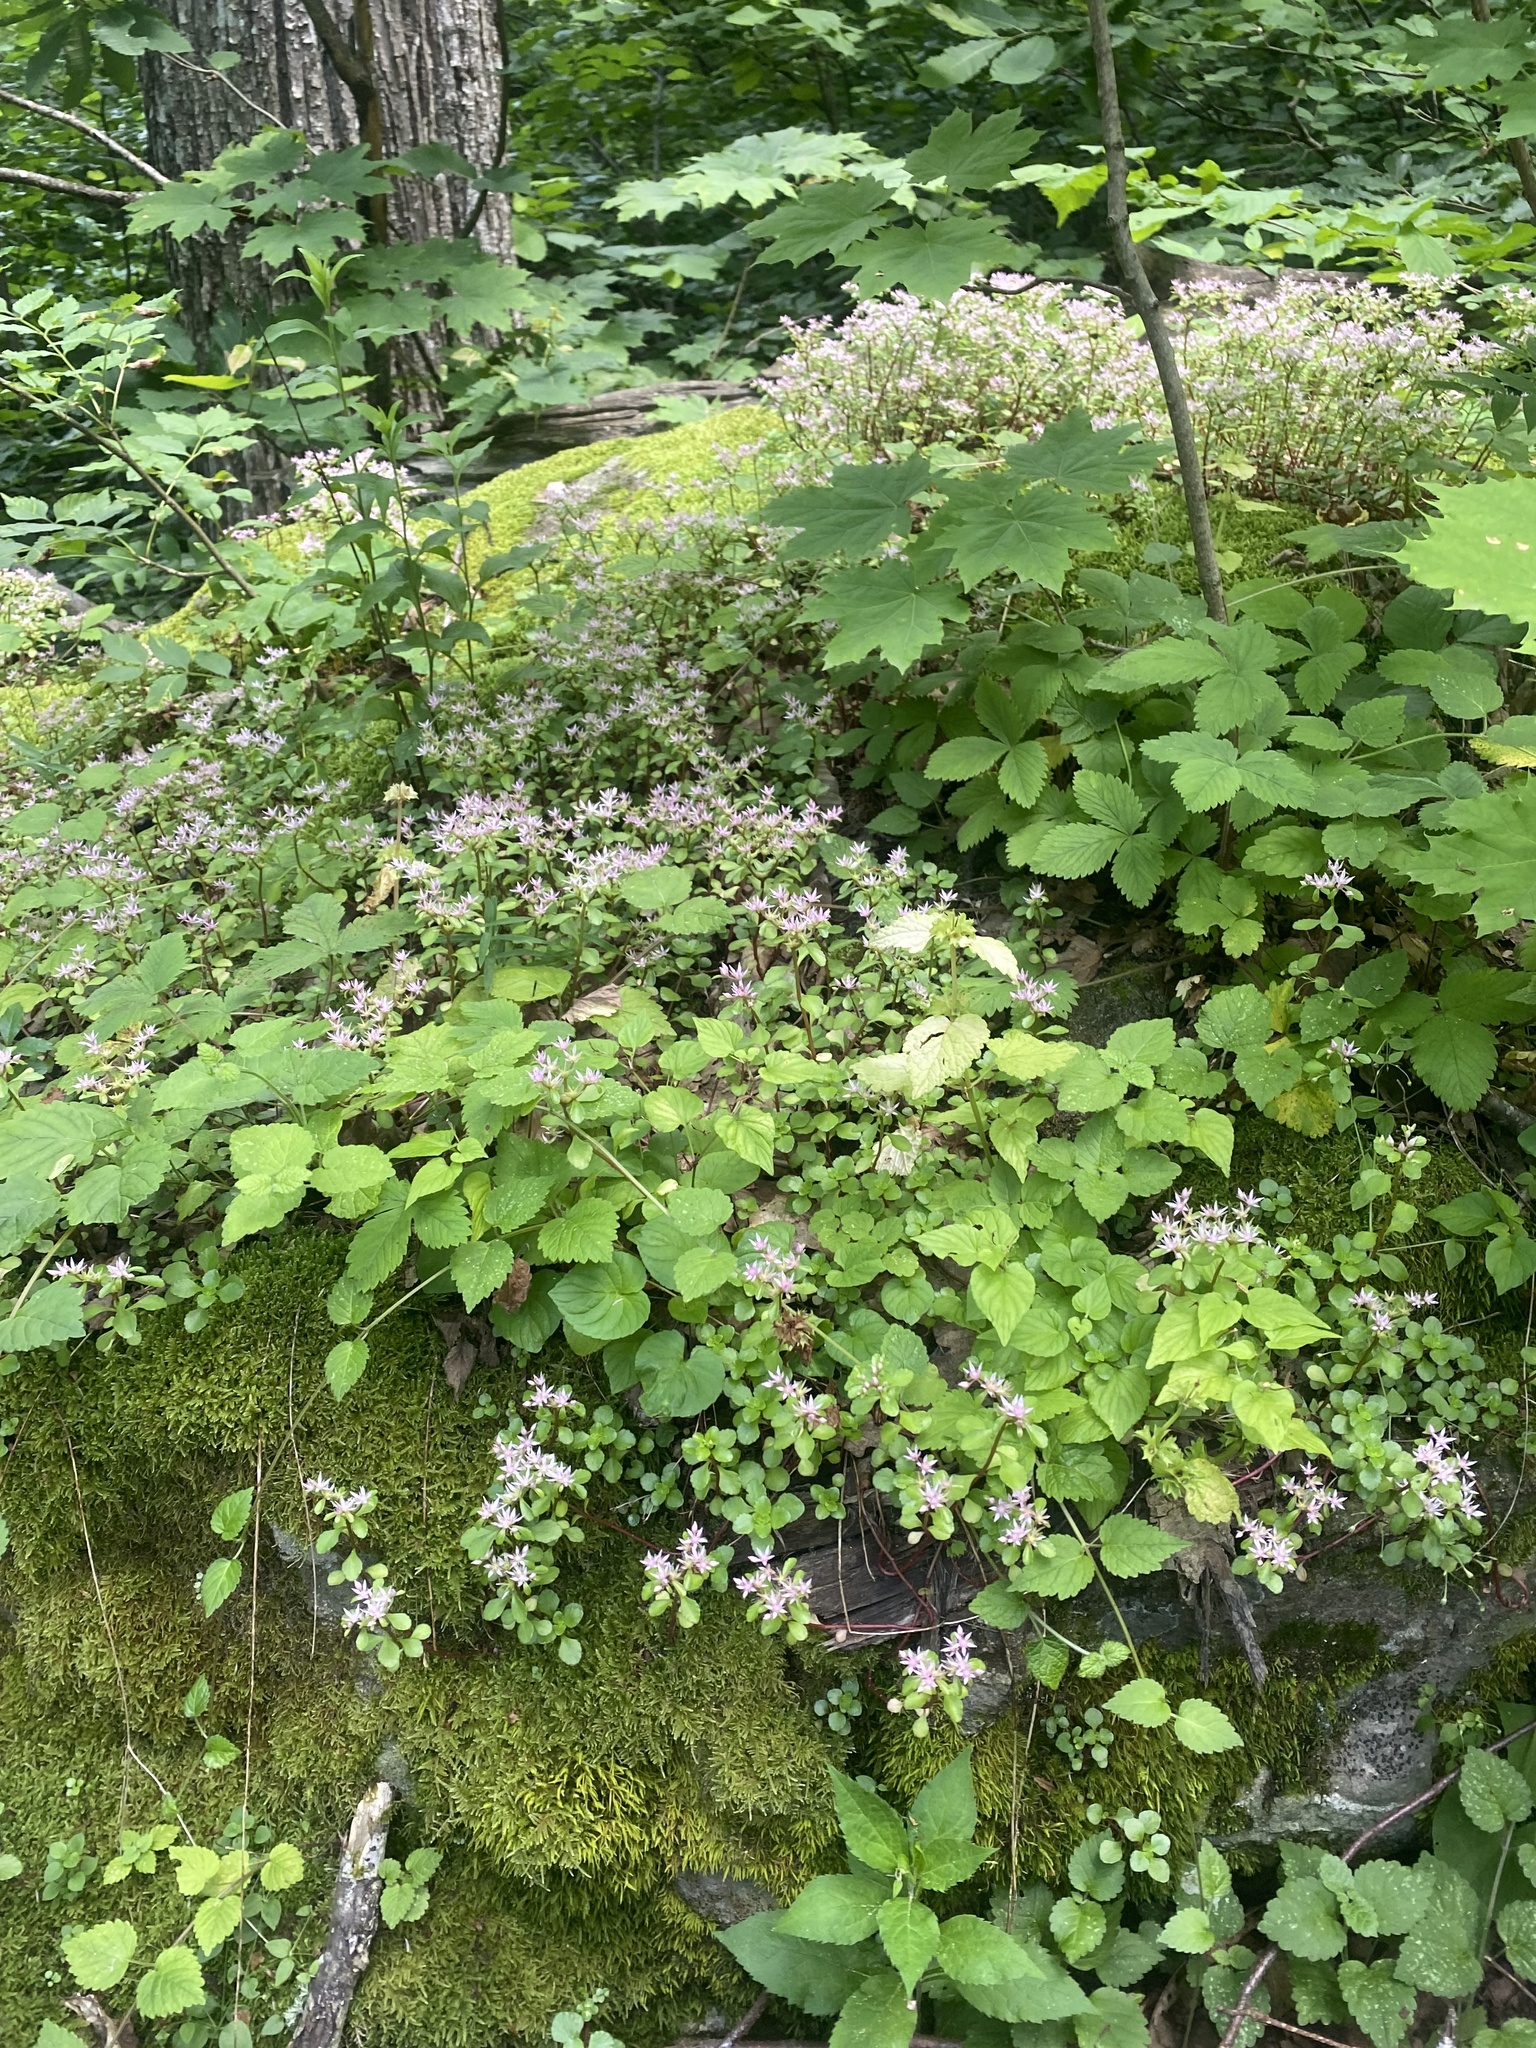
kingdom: Plantae
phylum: Tracheophyta
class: Magnoliopsida
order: Saxifragales
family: Crassulaceae
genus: Phedimus
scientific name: Phedimus stolonifer
